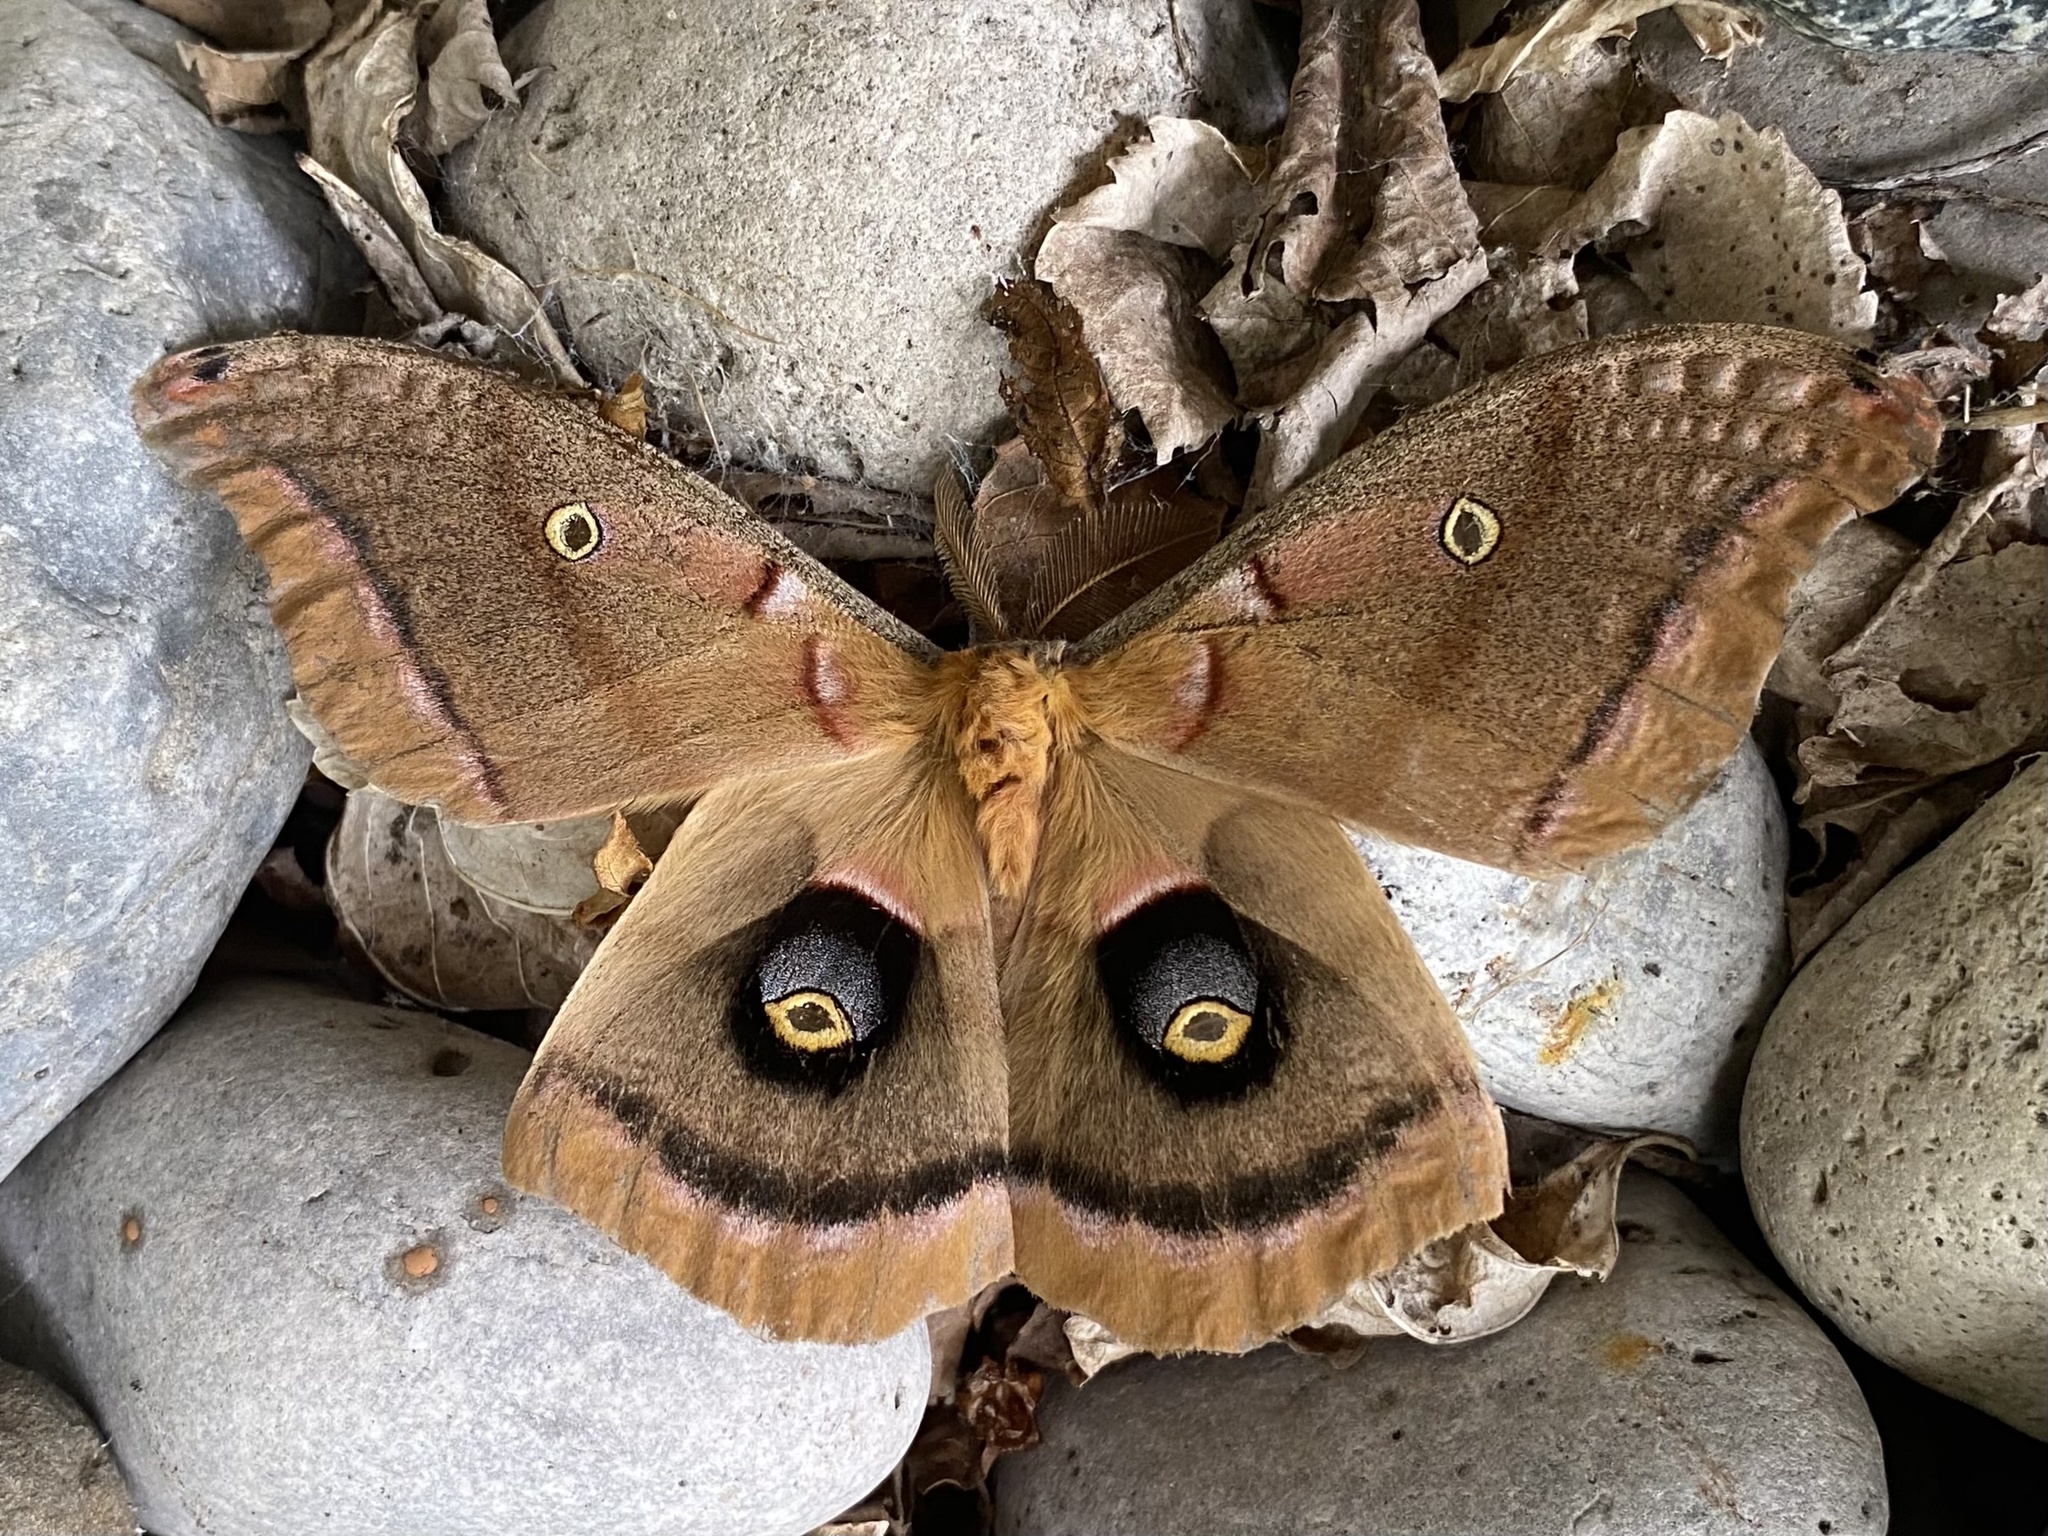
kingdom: Animalia
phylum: Arthropoda
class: Insecta
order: Lepidoptera
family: Saturniidae
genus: Antheraea
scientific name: Antheraea polyphemus
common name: Polyphemus moth
